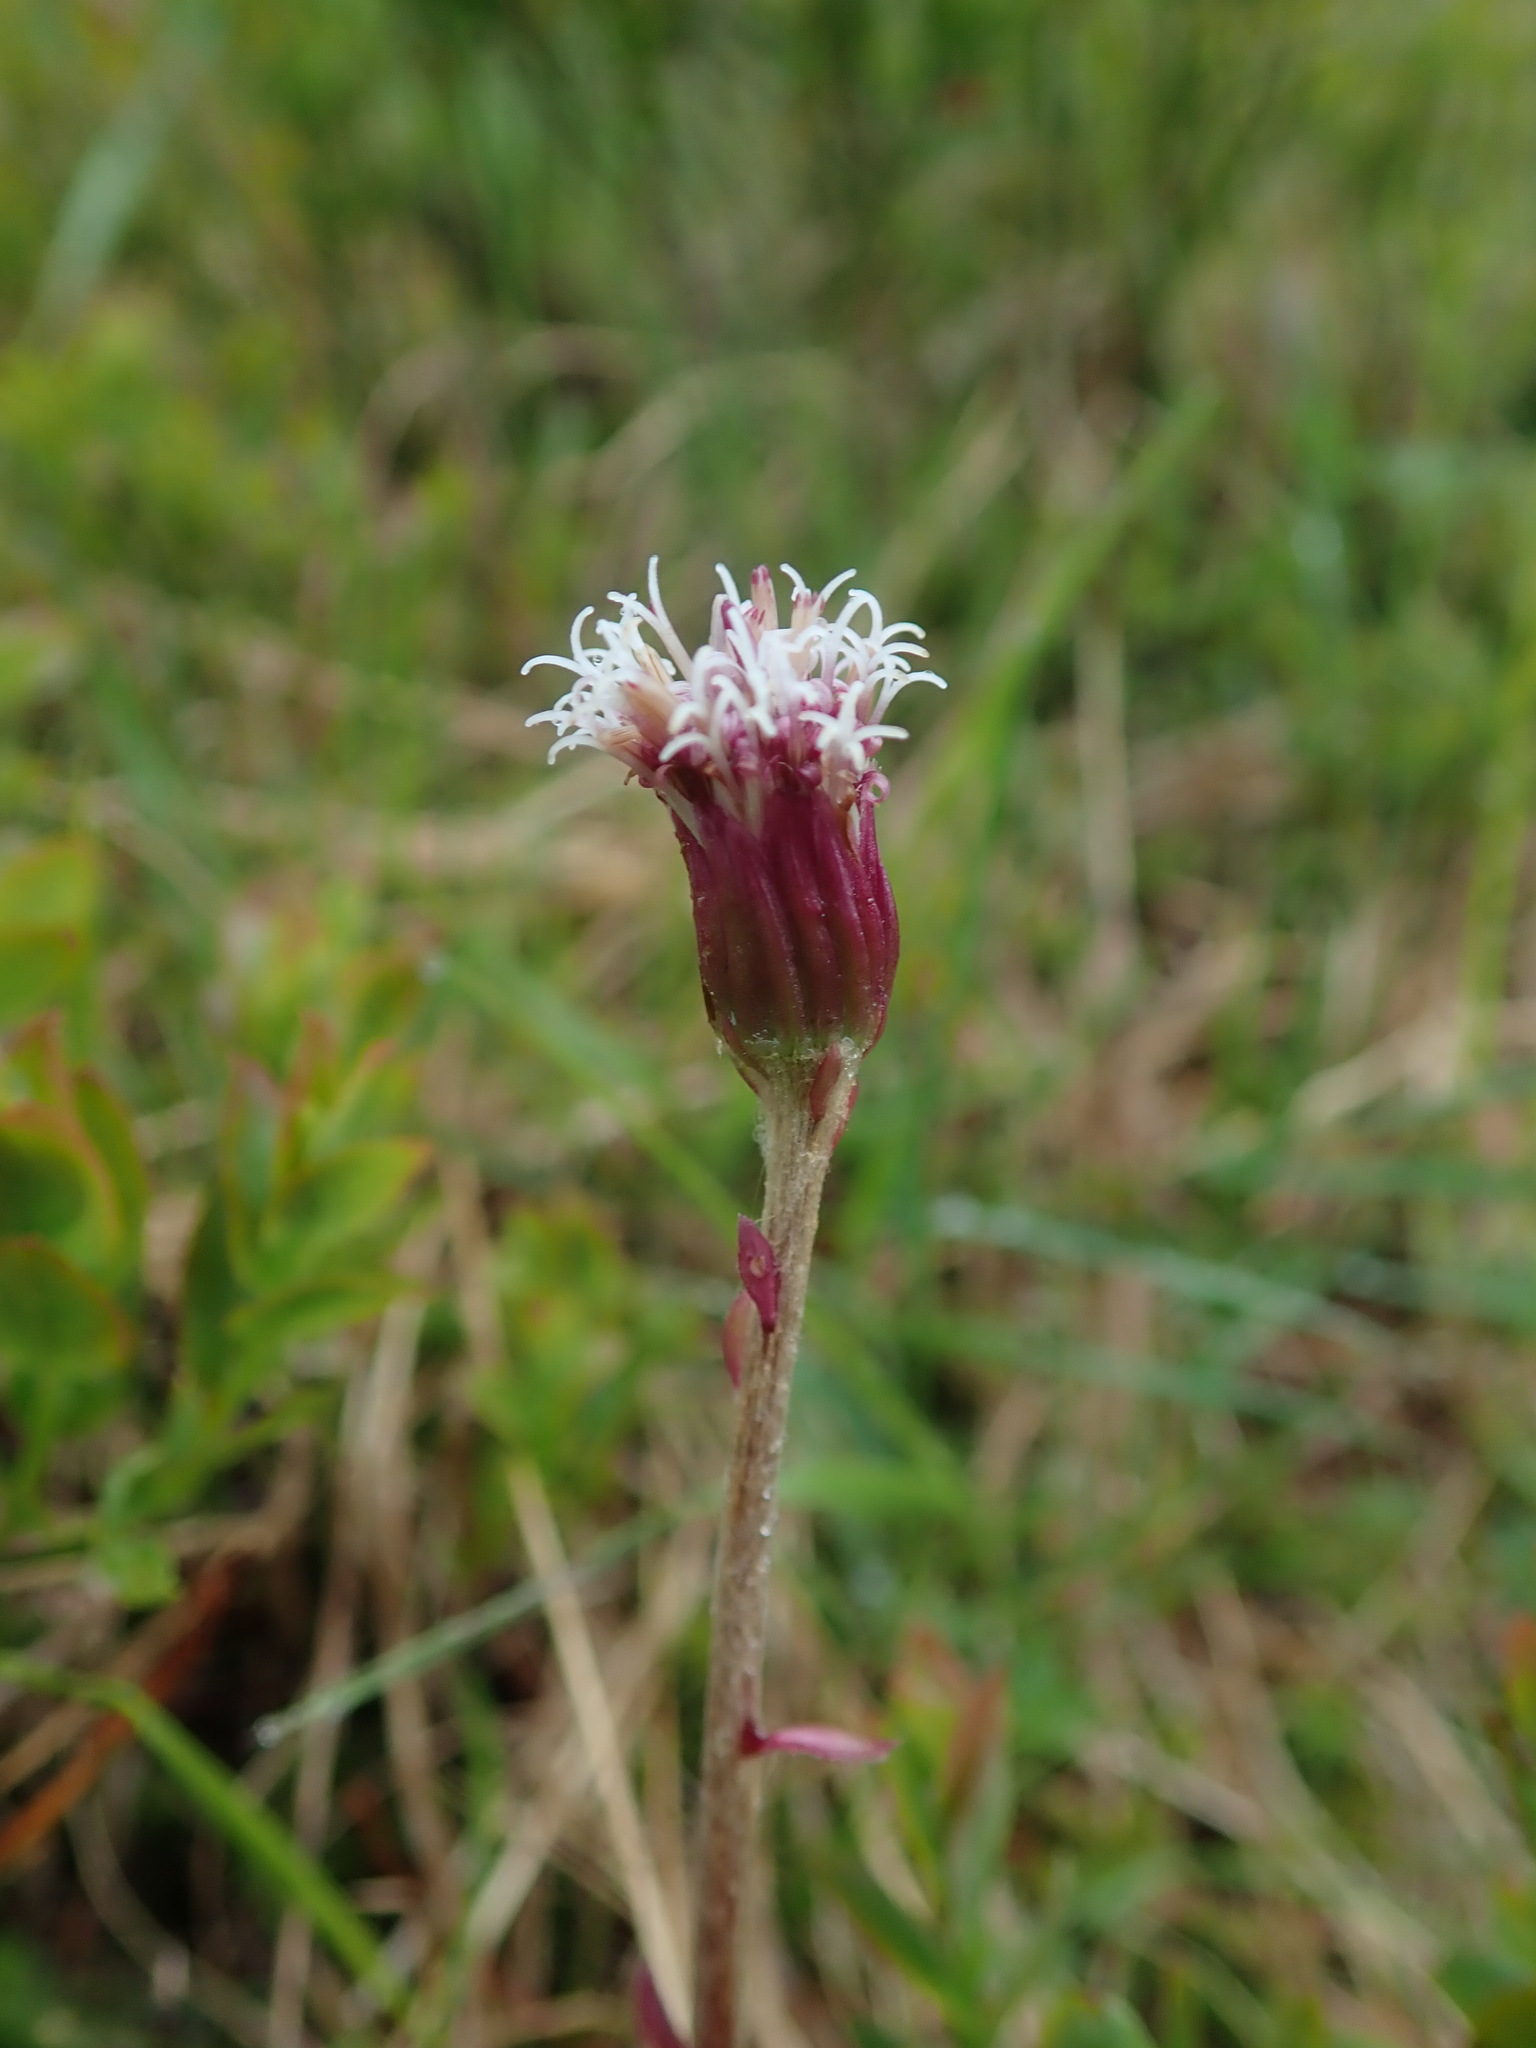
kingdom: Plantae
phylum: Tracheophyta
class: Magnoliopsida
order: Asterales
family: Asteraceae
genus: Homogyne
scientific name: Homogyne alpina
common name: Purple colt's-foot
